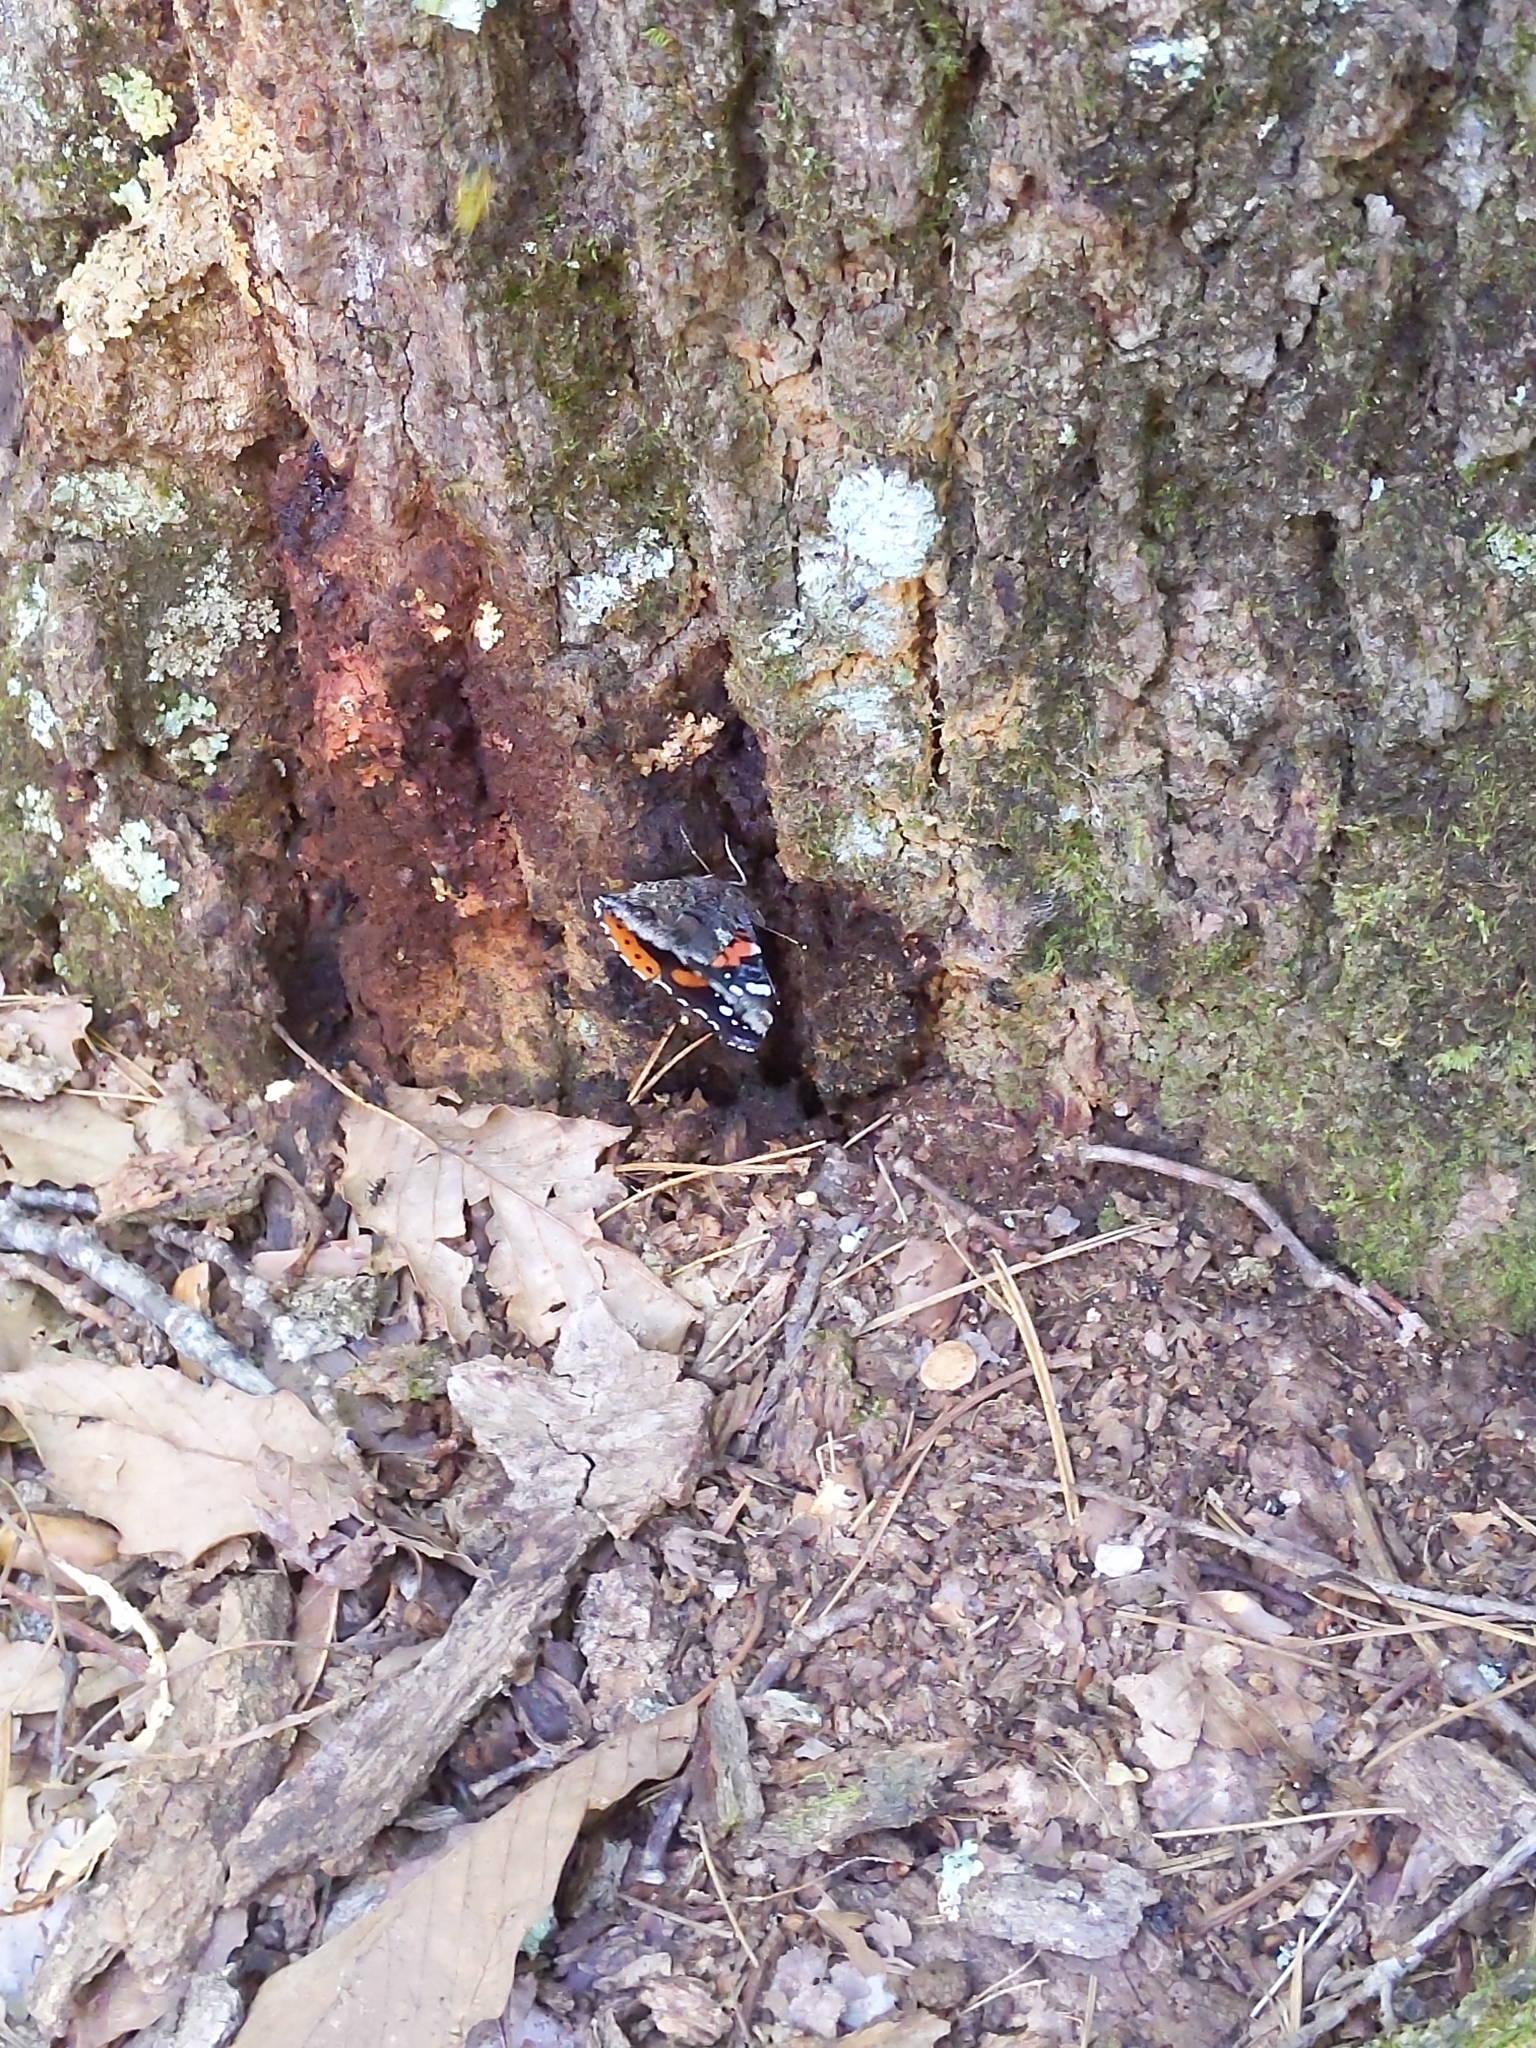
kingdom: Animalia
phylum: Arthropoda
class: Insecta
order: Lepidoptera
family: Nymphalidae
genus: Vanessa
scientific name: Vanessa atalanta
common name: Red admiral
